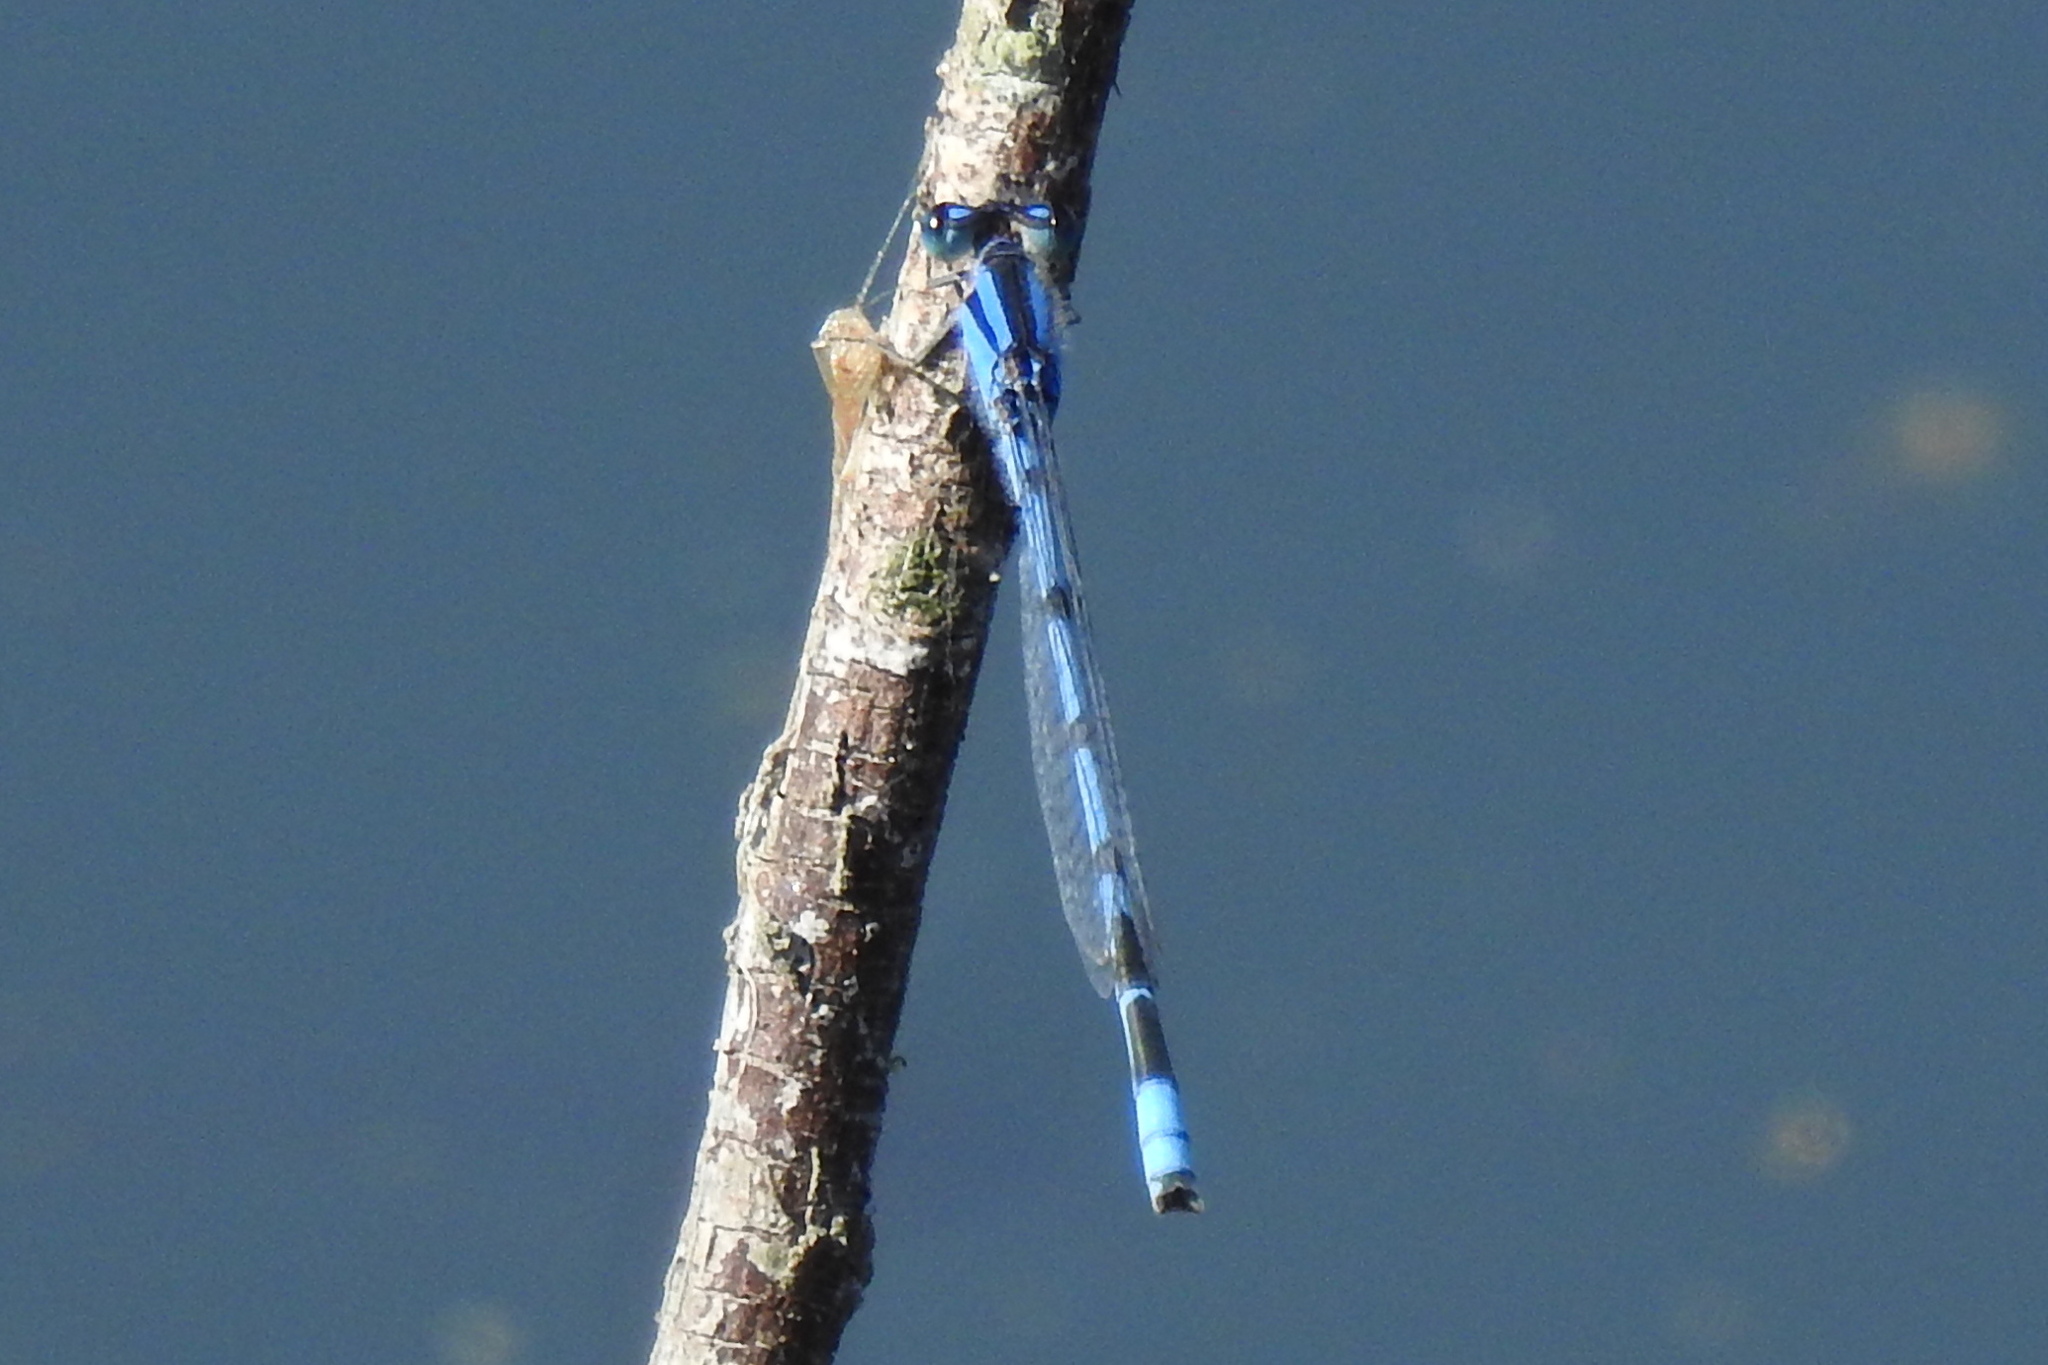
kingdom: Animalia
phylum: Arthropoda
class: Insecta
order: Odonata
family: Coenagrionidae
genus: Enallagma
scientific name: Enallagma civile
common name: Damselfly
